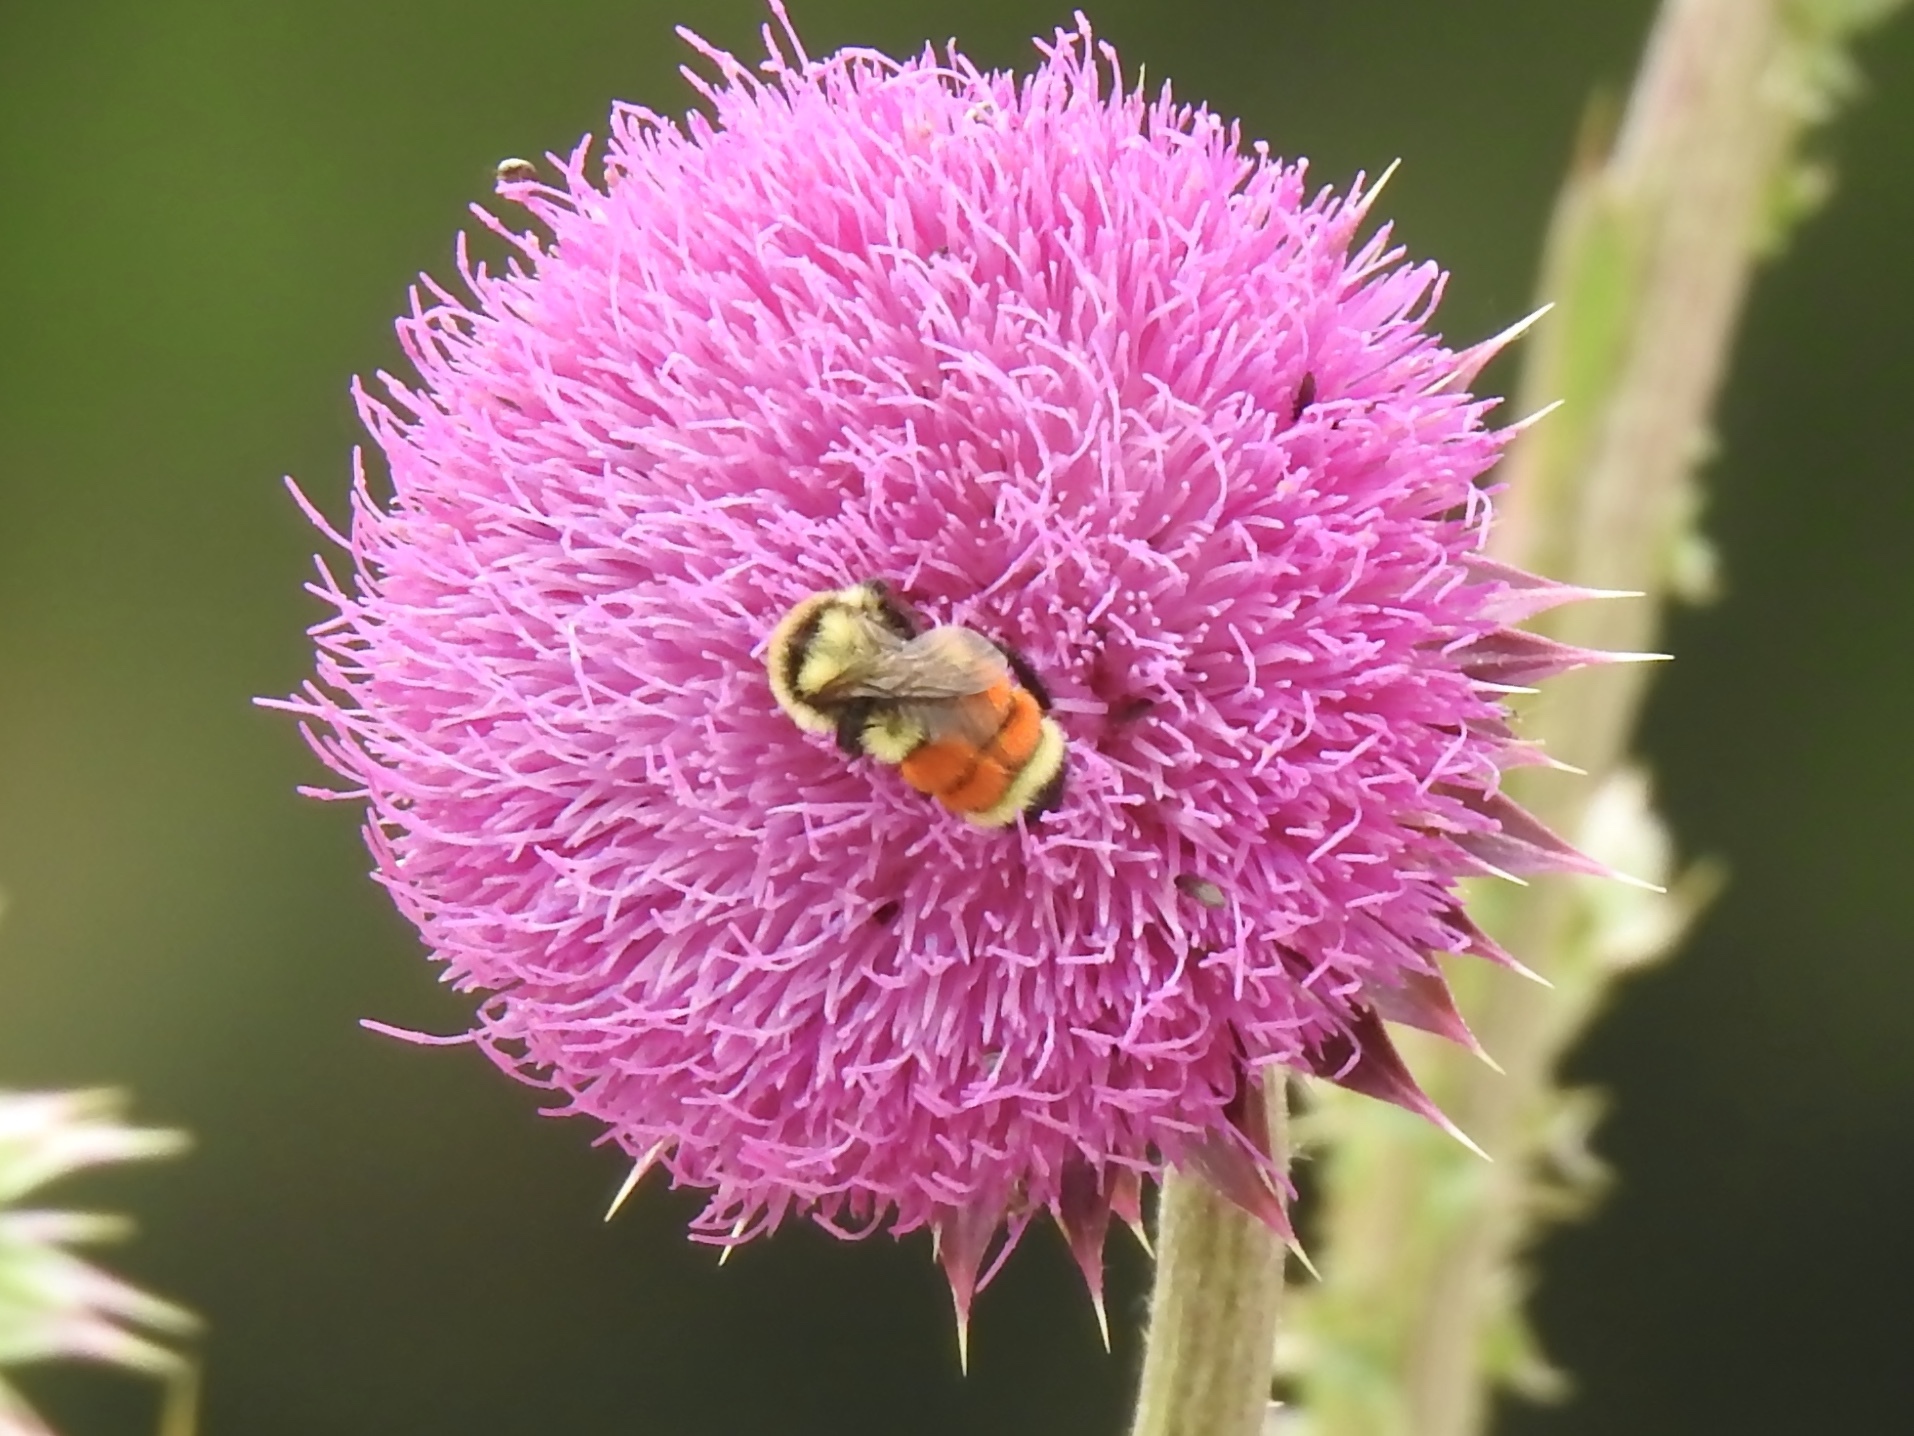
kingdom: Animalia
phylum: Arthropoda
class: Insecta
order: Hymenoptera
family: Apidae
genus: Bombus
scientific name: Bombus huntii
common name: Hunt bumble bee
